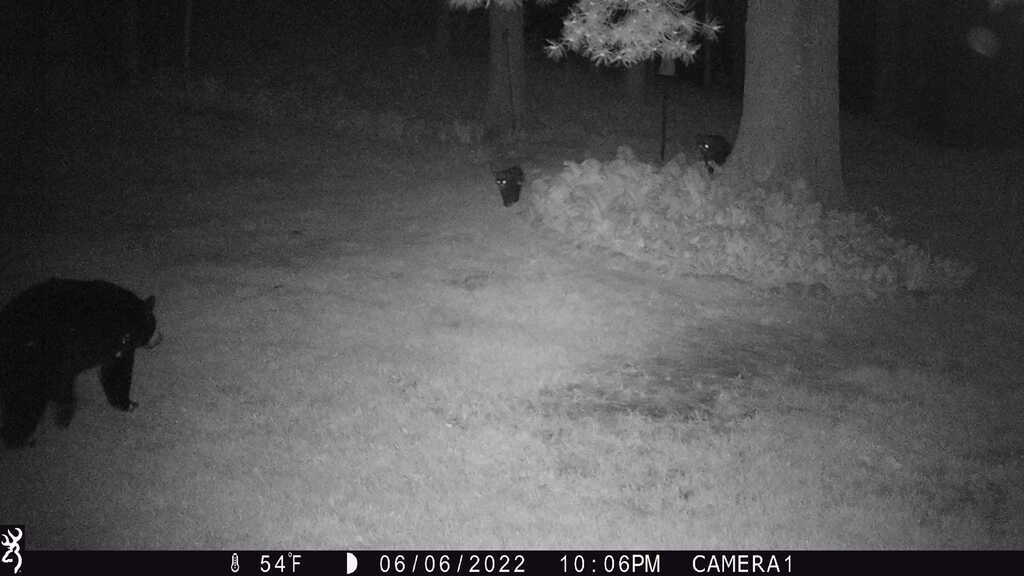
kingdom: Animalia
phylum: Chordata
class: Mammalia
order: Carnivora
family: Ursidae
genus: Ursus
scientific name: Ursus americanus
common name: American black bear
